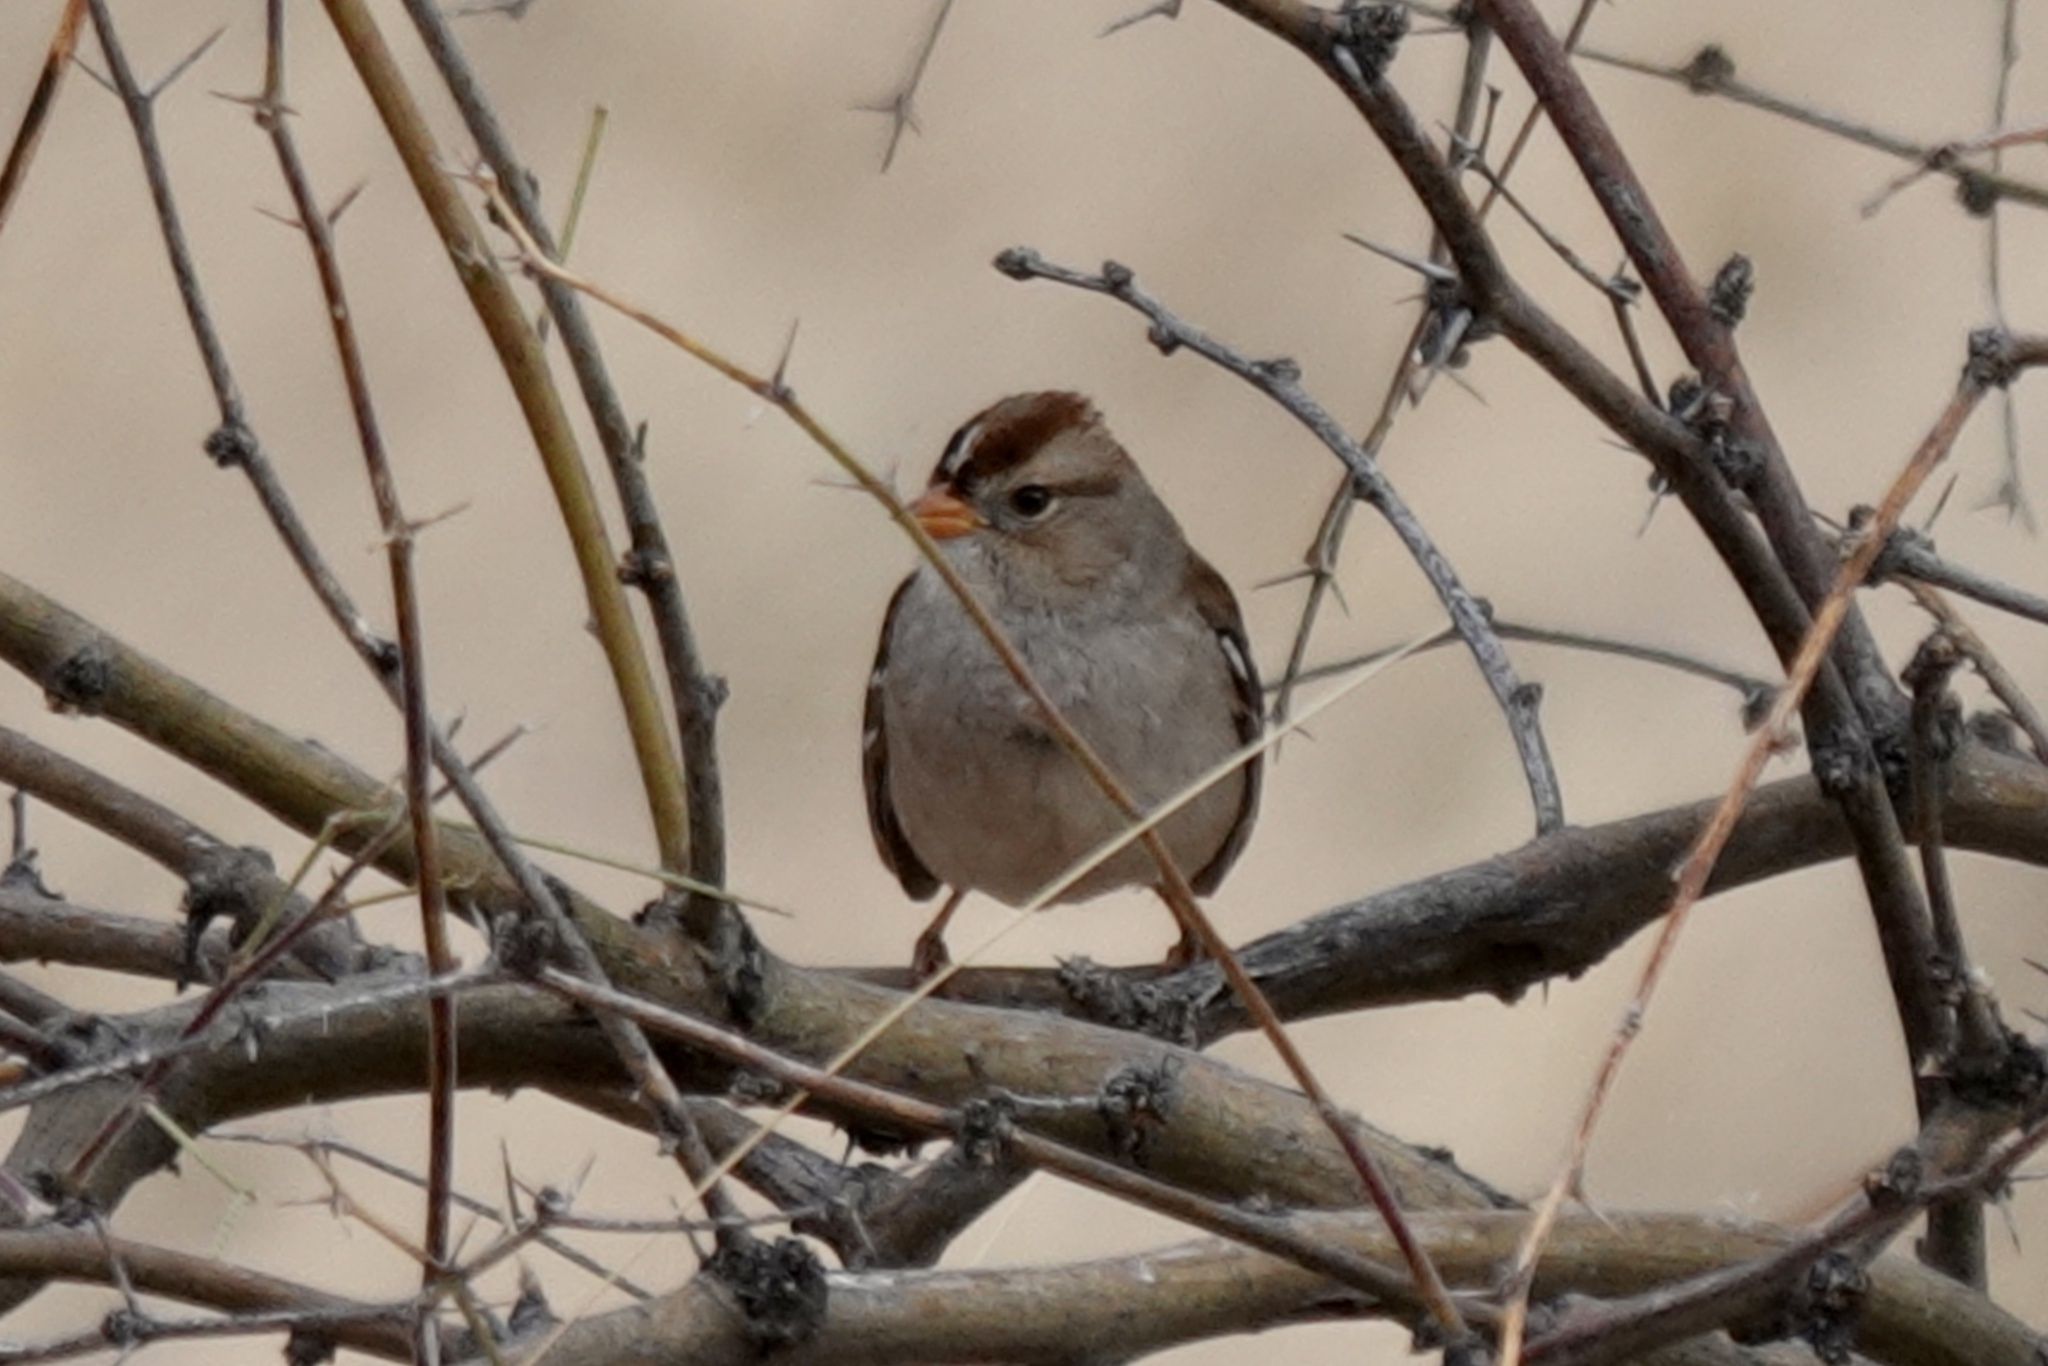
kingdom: Animalia
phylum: Chordata
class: Aves
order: Passeriformes
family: Passerellidae
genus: Zonotrichia
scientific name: Zonotrichia leucophrys
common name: White-crowned sparrow
